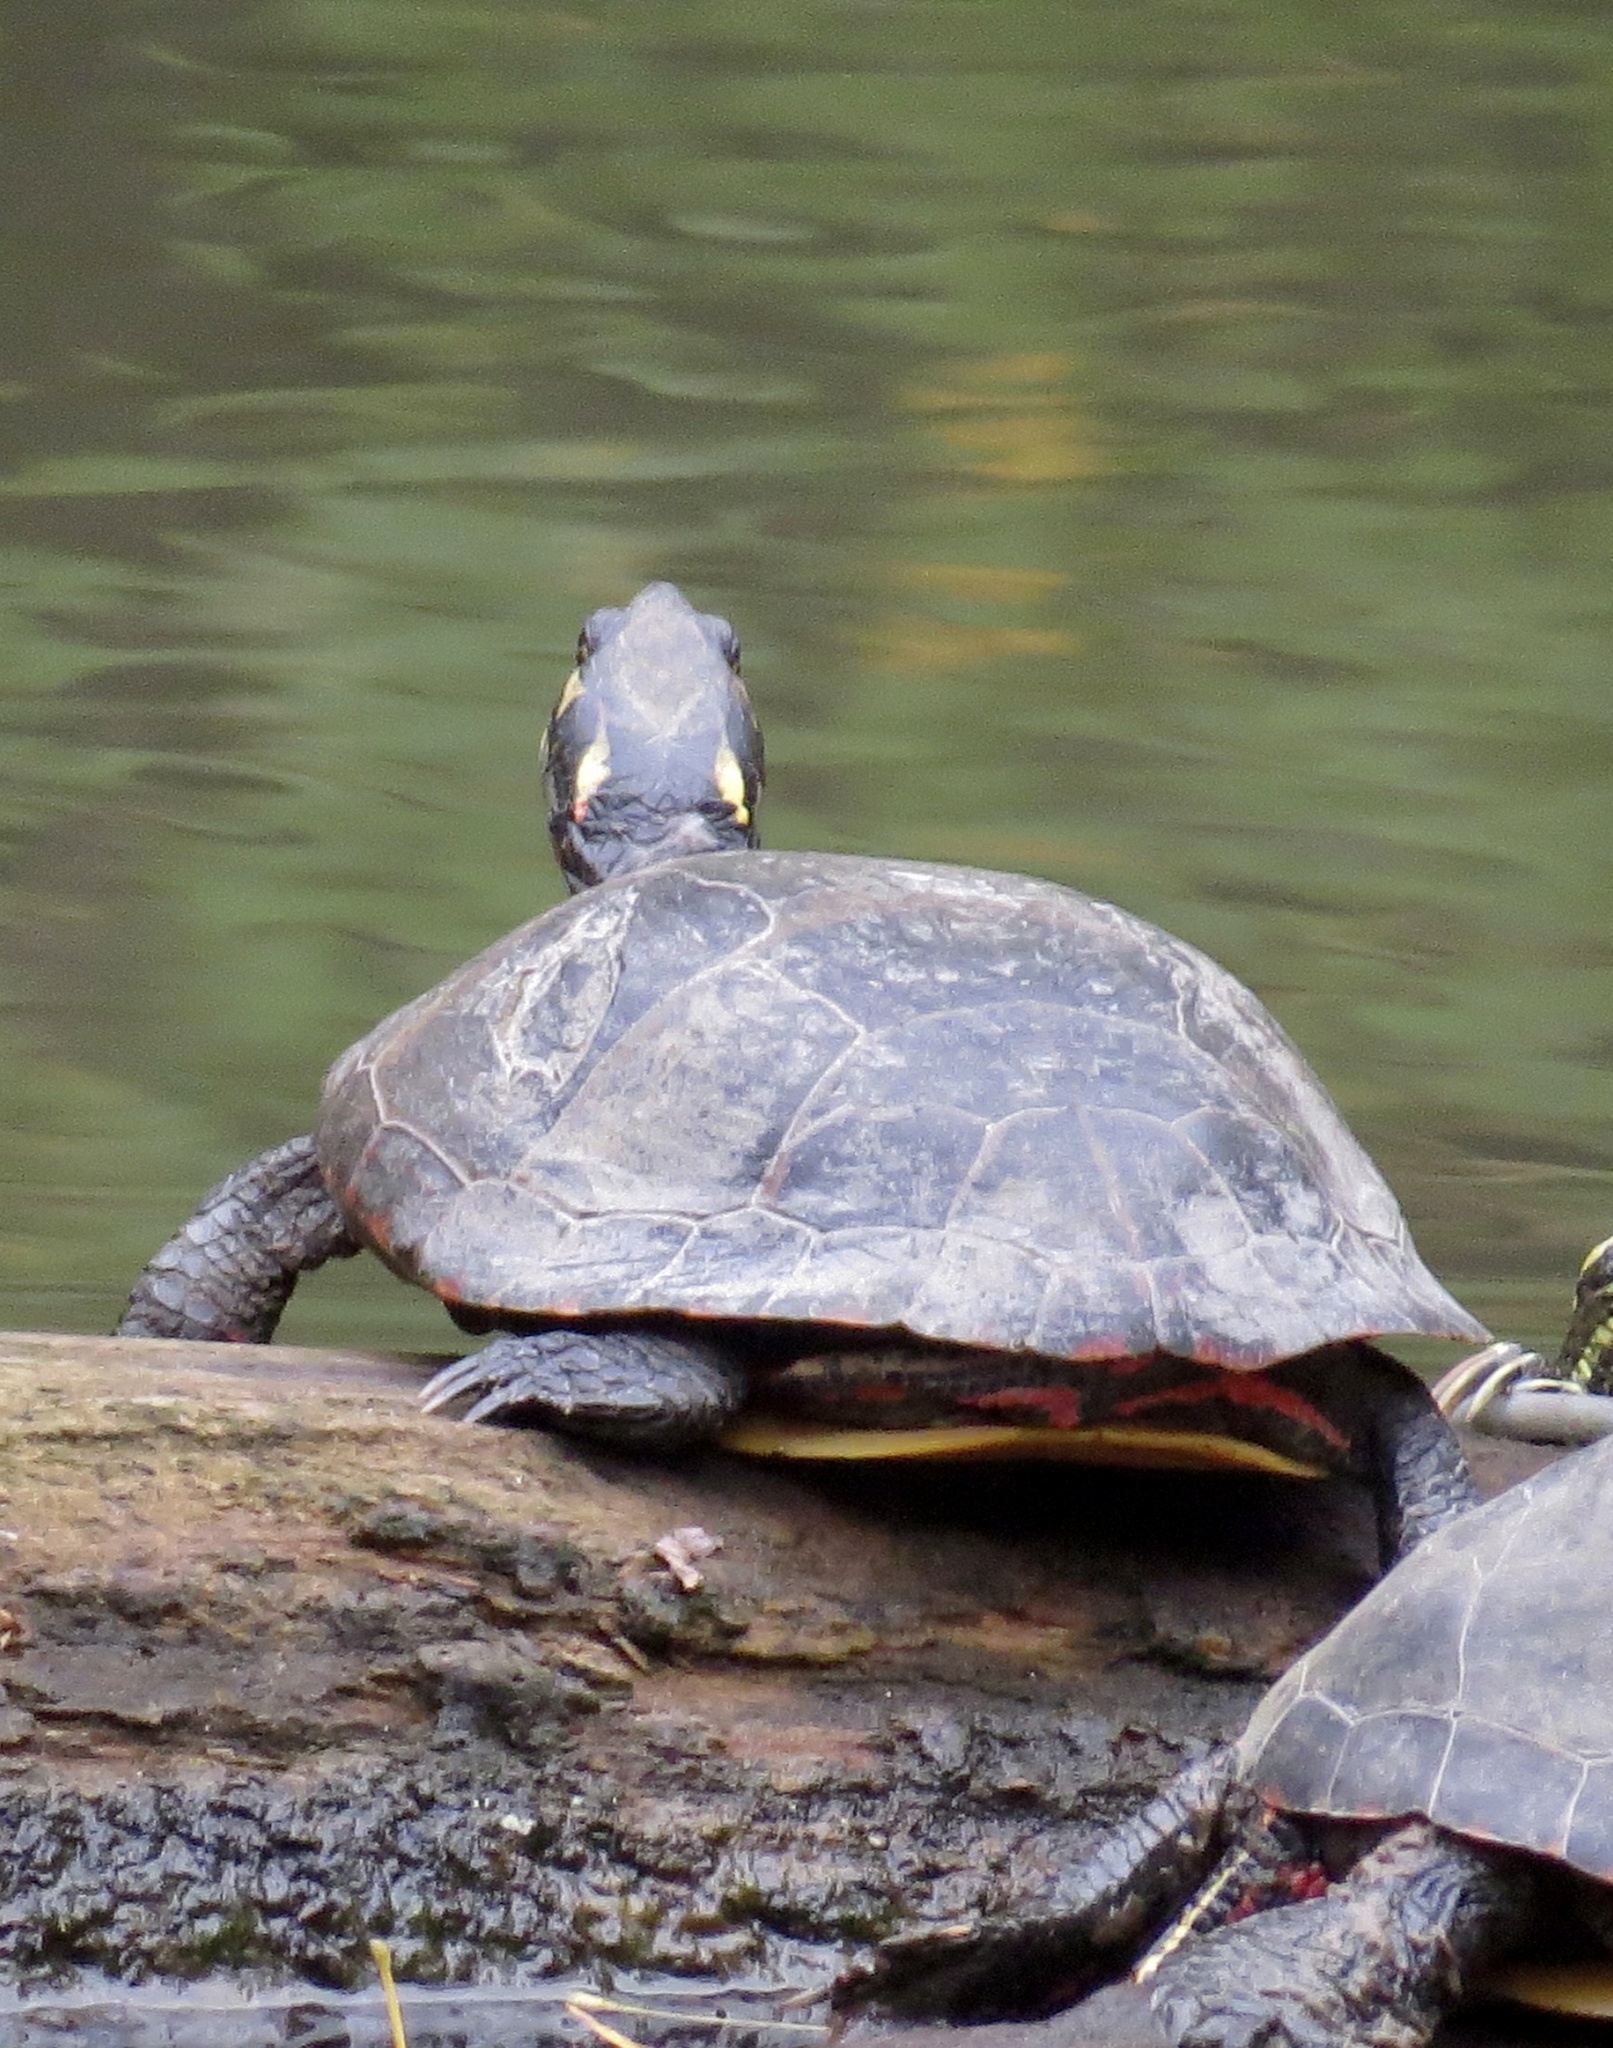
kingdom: Animalia
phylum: Chordata
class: Testudines
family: Emydidae
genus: Chrysemys
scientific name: Chrysemys picta
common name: Painted turtle
